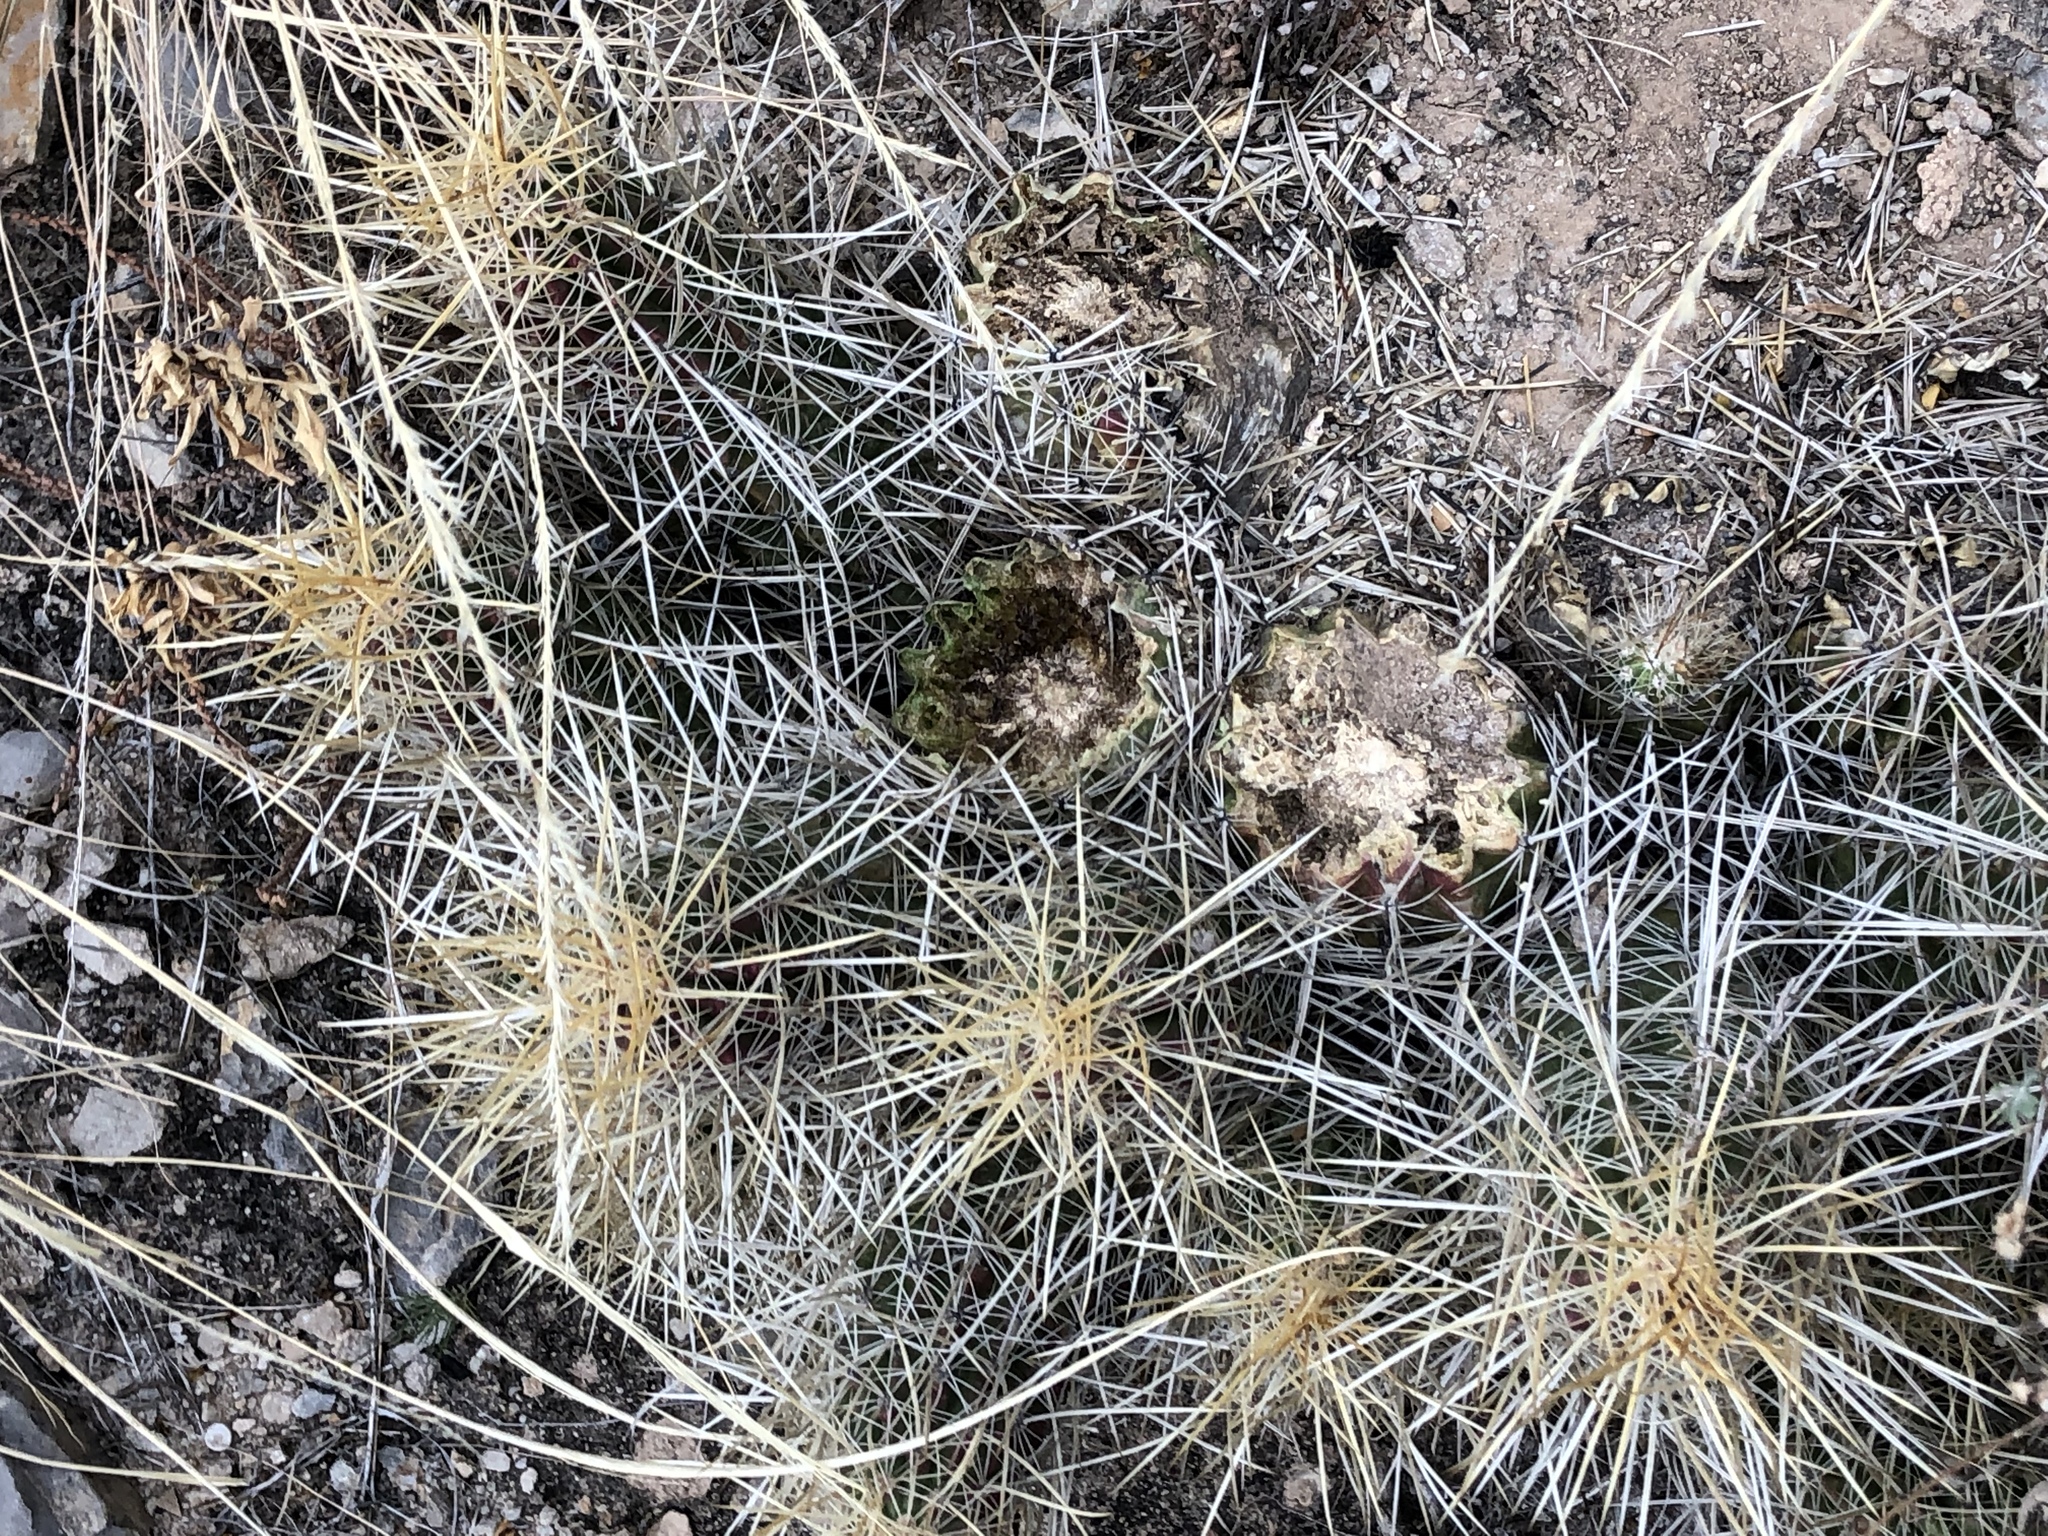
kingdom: Plantae
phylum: Tracheophyta
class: Magnoliopsida
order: Caryophyllales
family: Cactaceae
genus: Echinocereus
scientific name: Echinocereus stramineus
